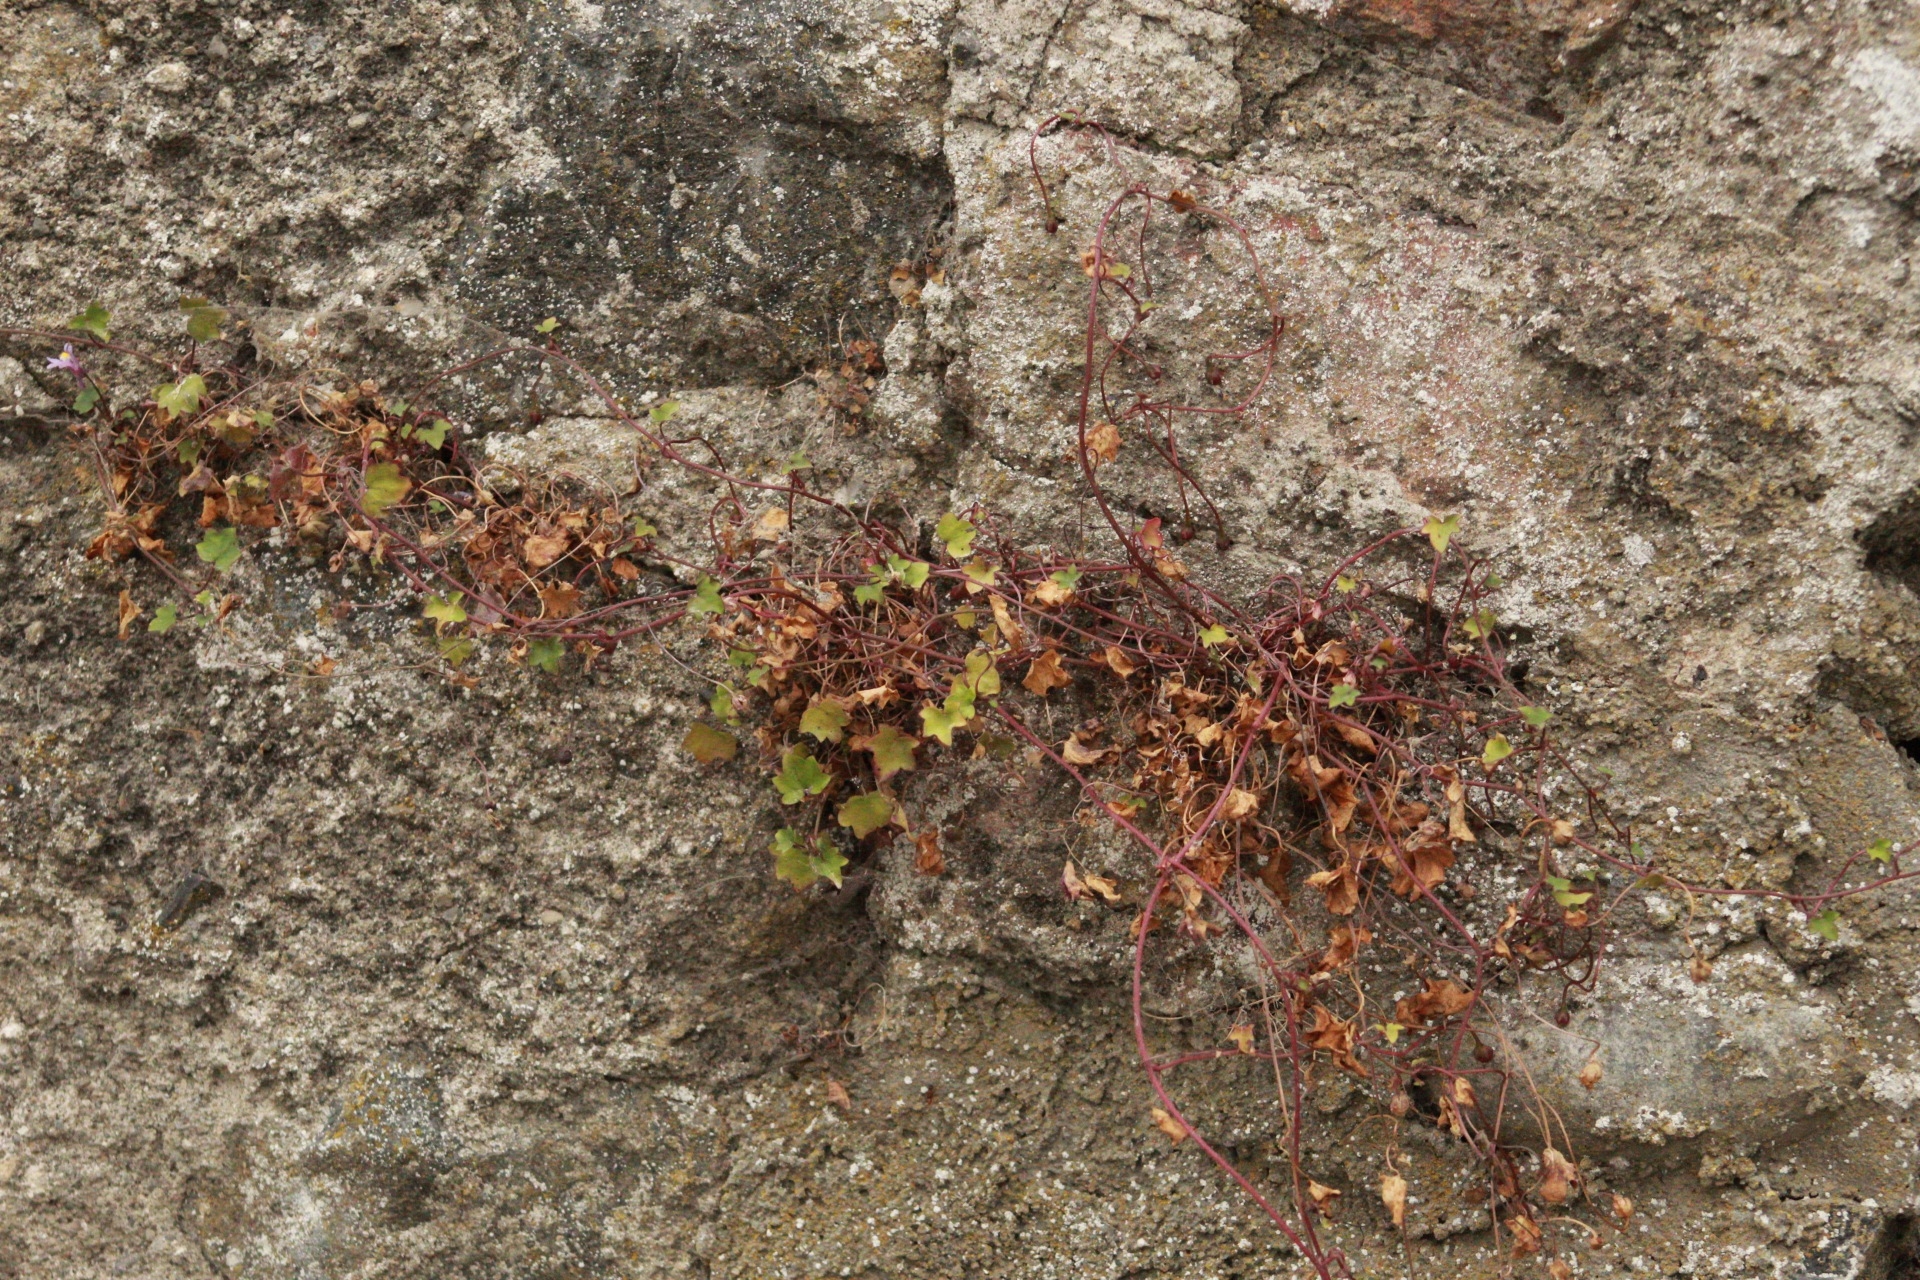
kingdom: Plantae
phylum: Tracheophyta
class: Magnoliopsida
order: Lamiales
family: Plantaginaceae
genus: Cymbalaria
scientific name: Cymbalaria muralis
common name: Ivy-leaved toadflax
